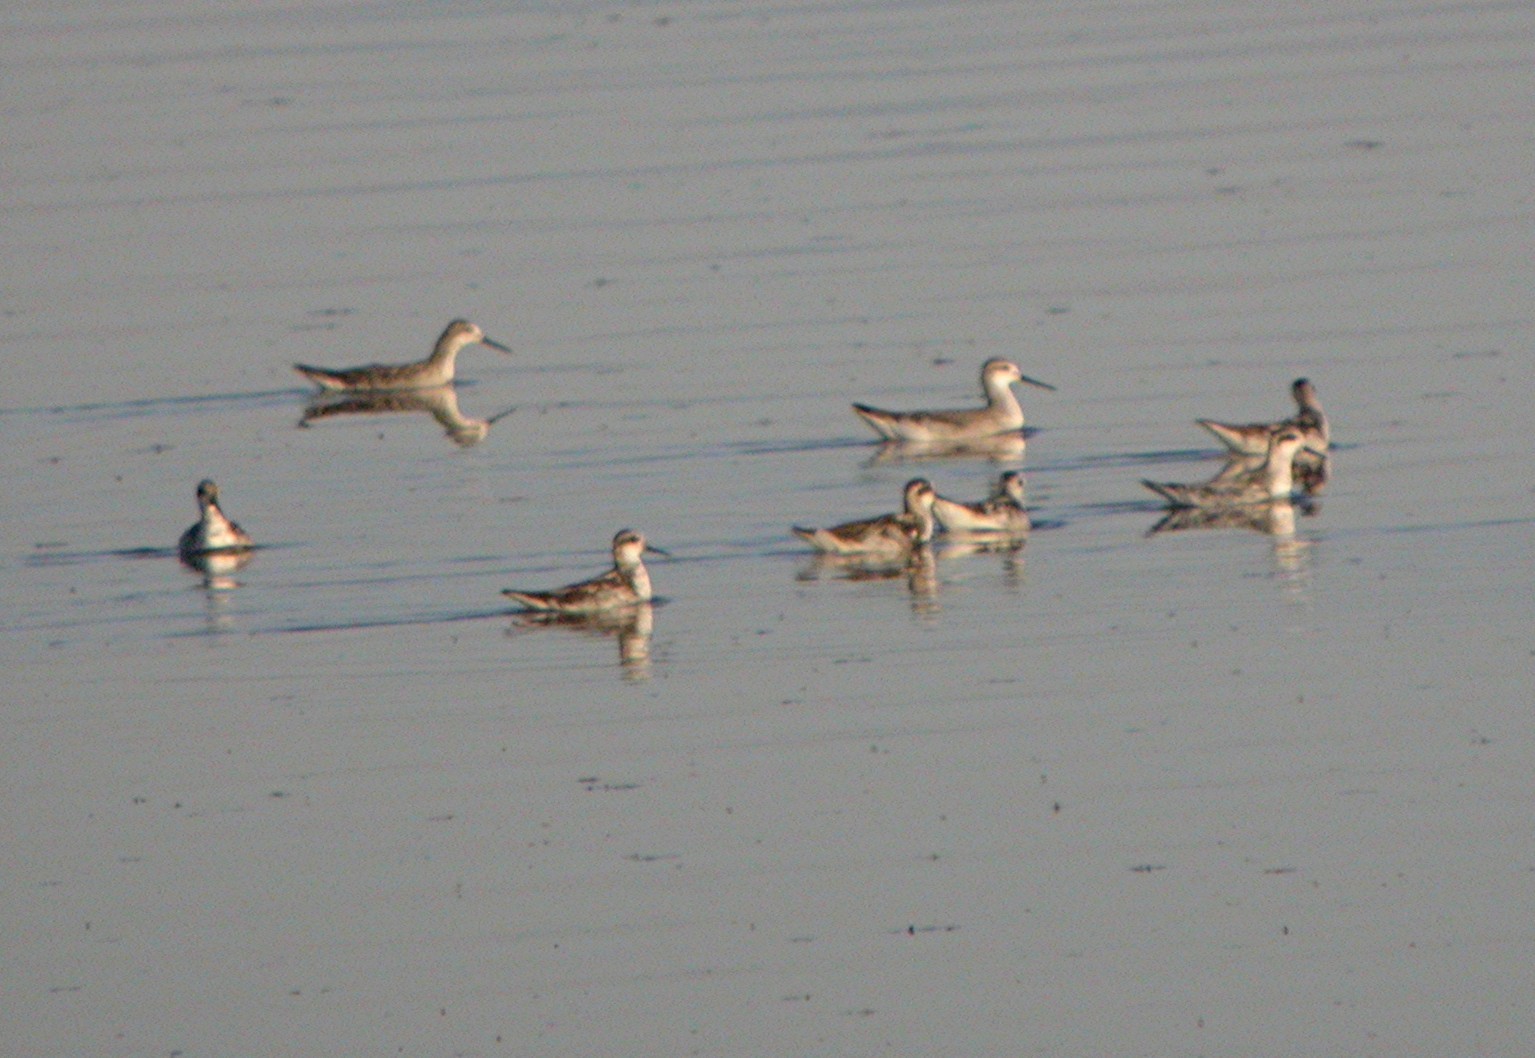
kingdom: Animalia
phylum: Chordata
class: Aves
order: Charadriiformes
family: Scolopacidae
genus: Phalaropus
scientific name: Phalaropus lobatus
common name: Red-necked phalarope
